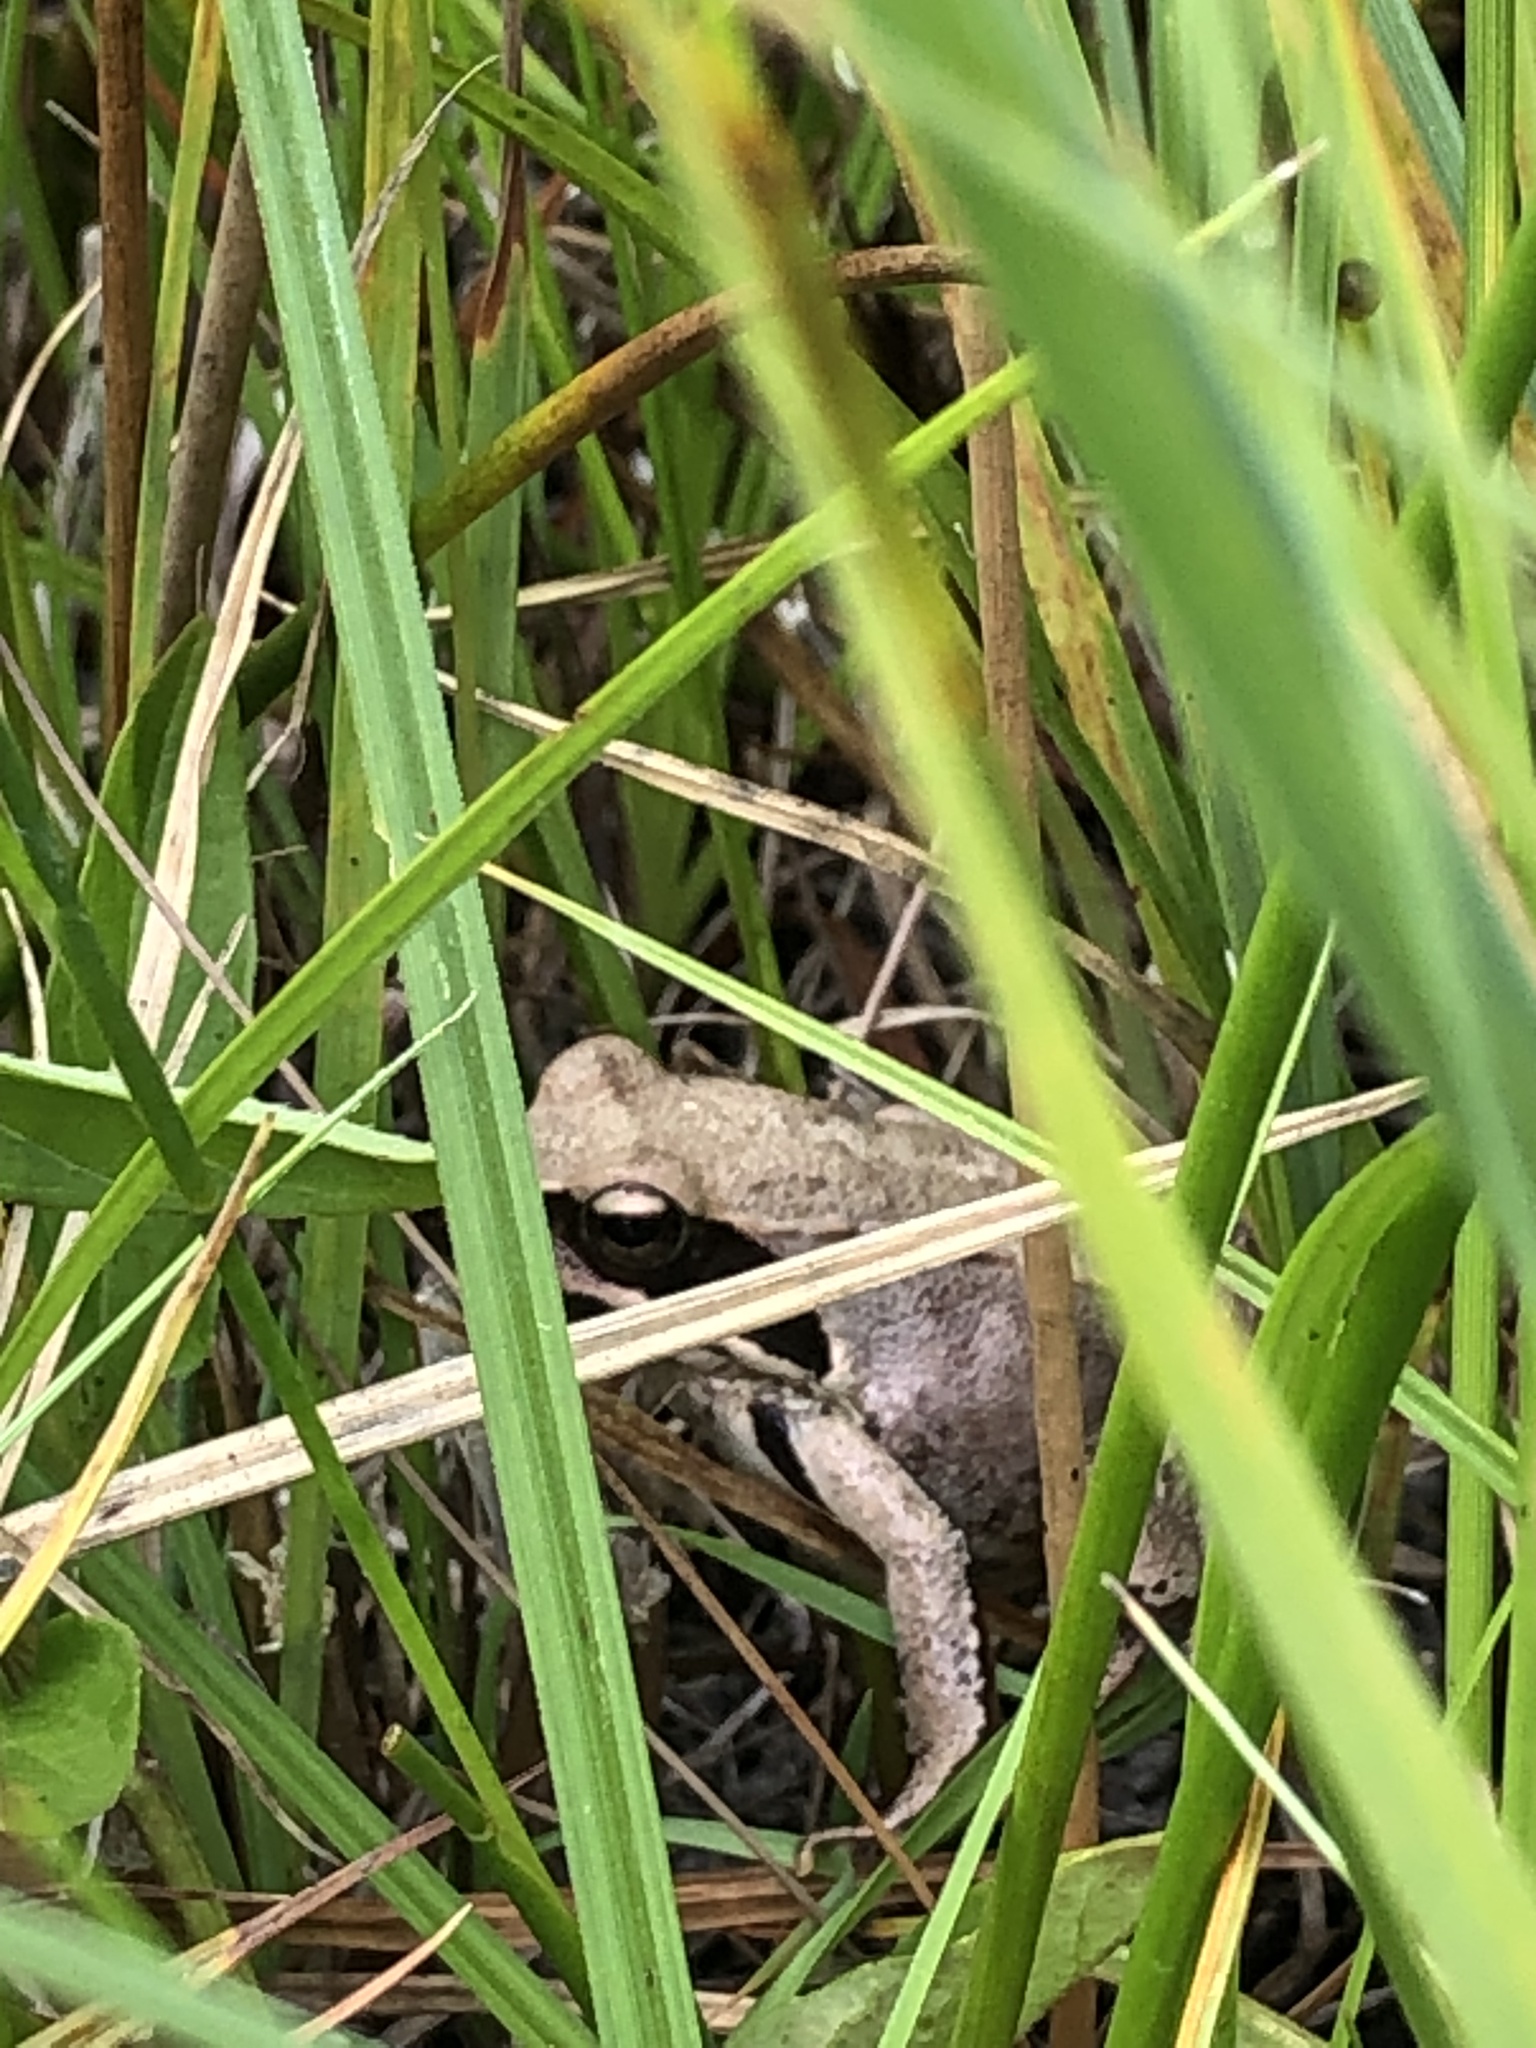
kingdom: Animalia
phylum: Chordata
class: Amphibia
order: Anura
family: Ranidae
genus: Rana
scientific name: Rana dalmatina
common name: Agile frog
